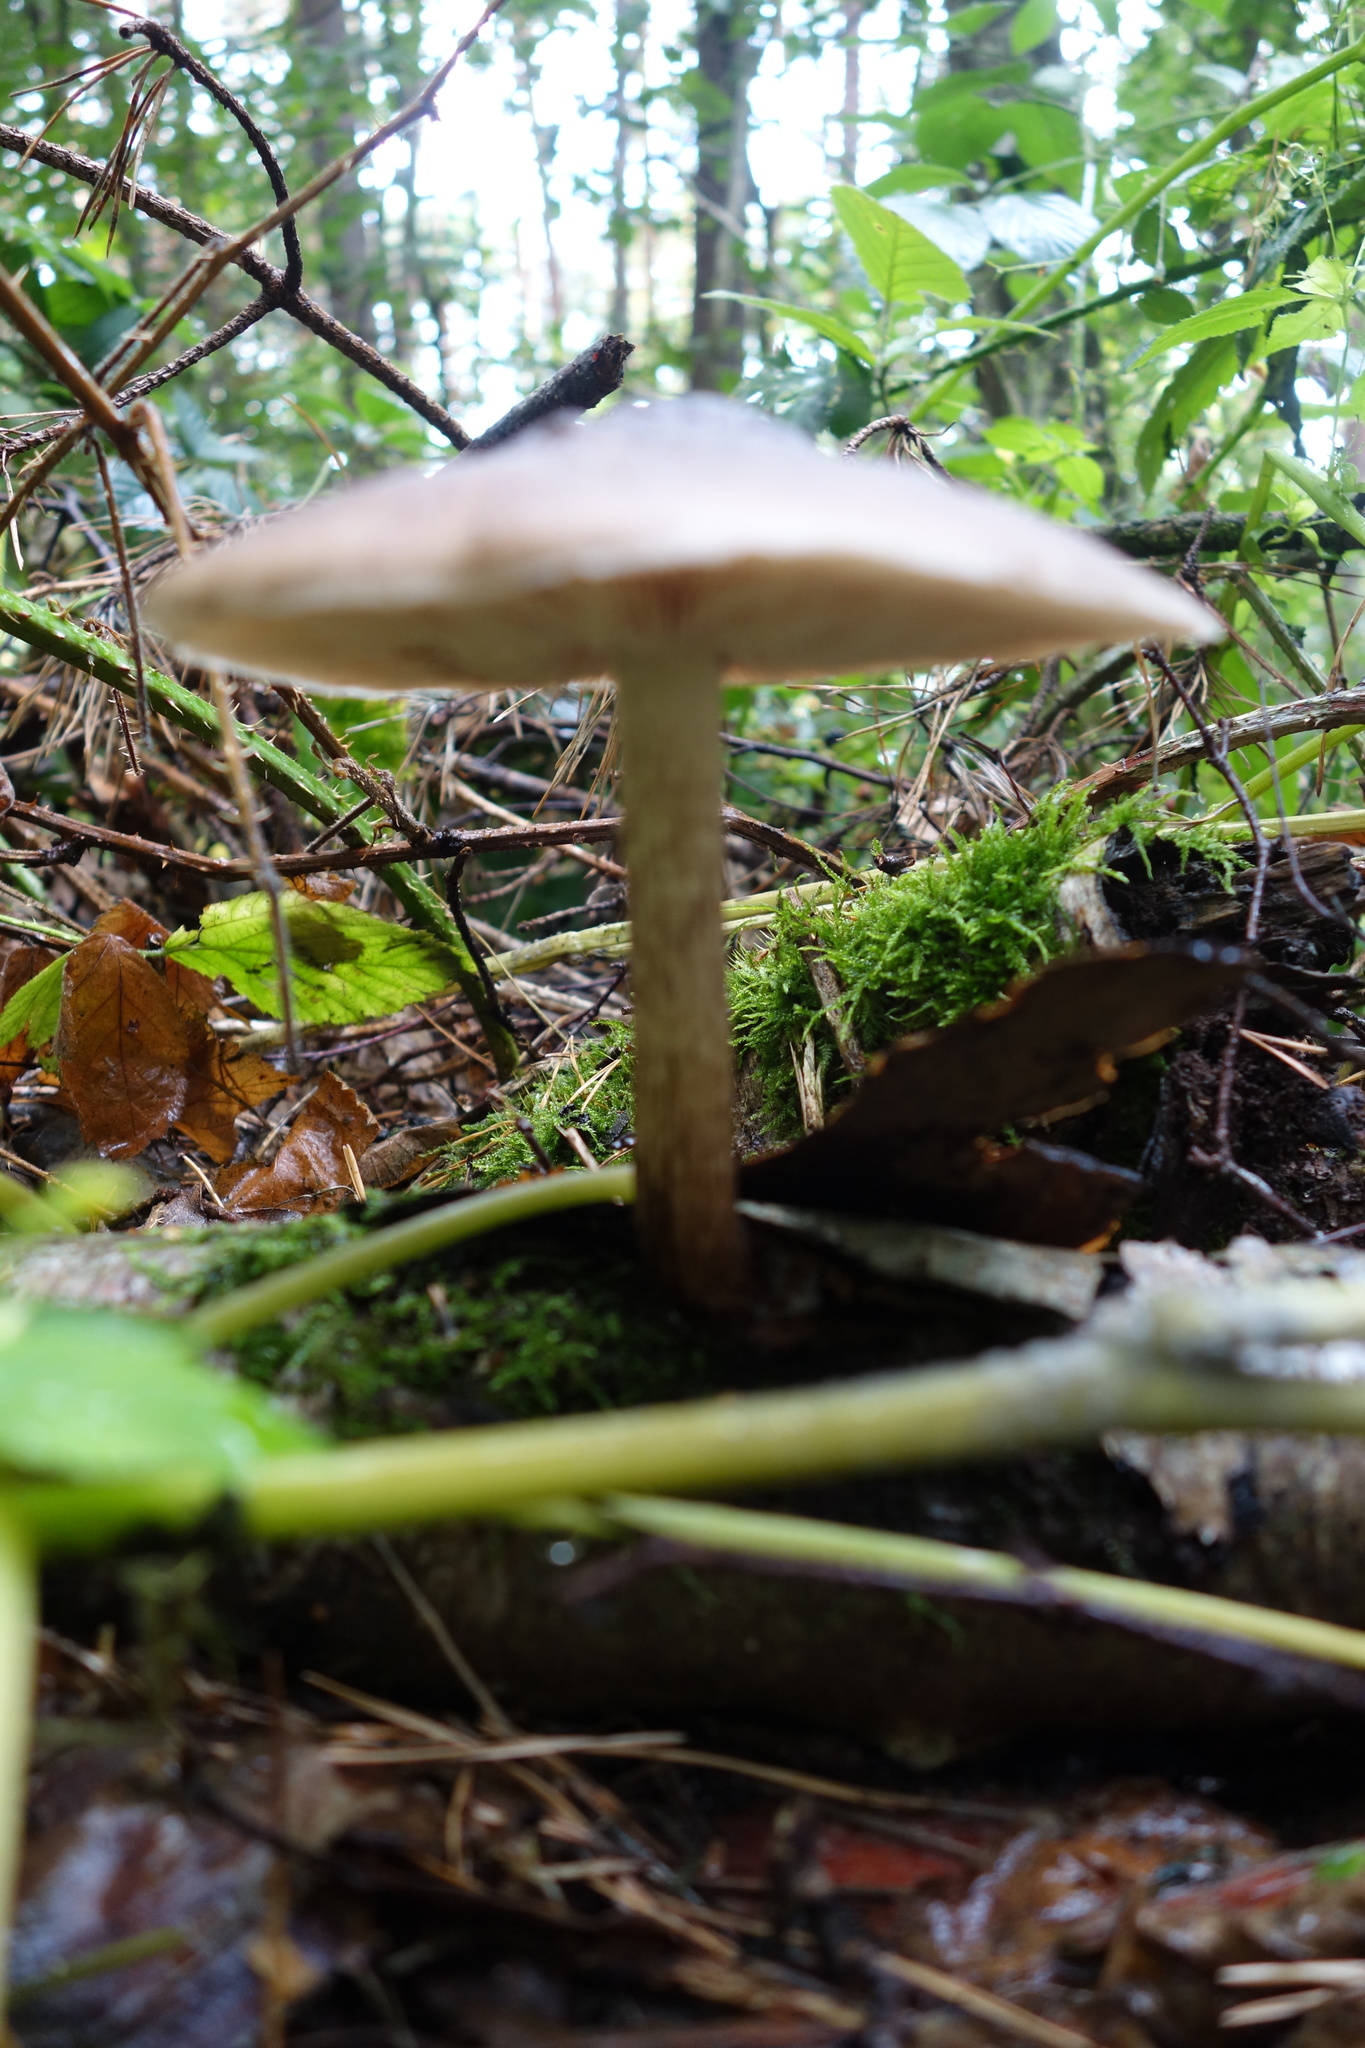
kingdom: Fungi
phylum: Basidiomycota
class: Agaricomycetes
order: Agaricales
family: Pluteaceae
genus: Pluteus
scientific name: Pluteus cervinus
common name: Deer shield
